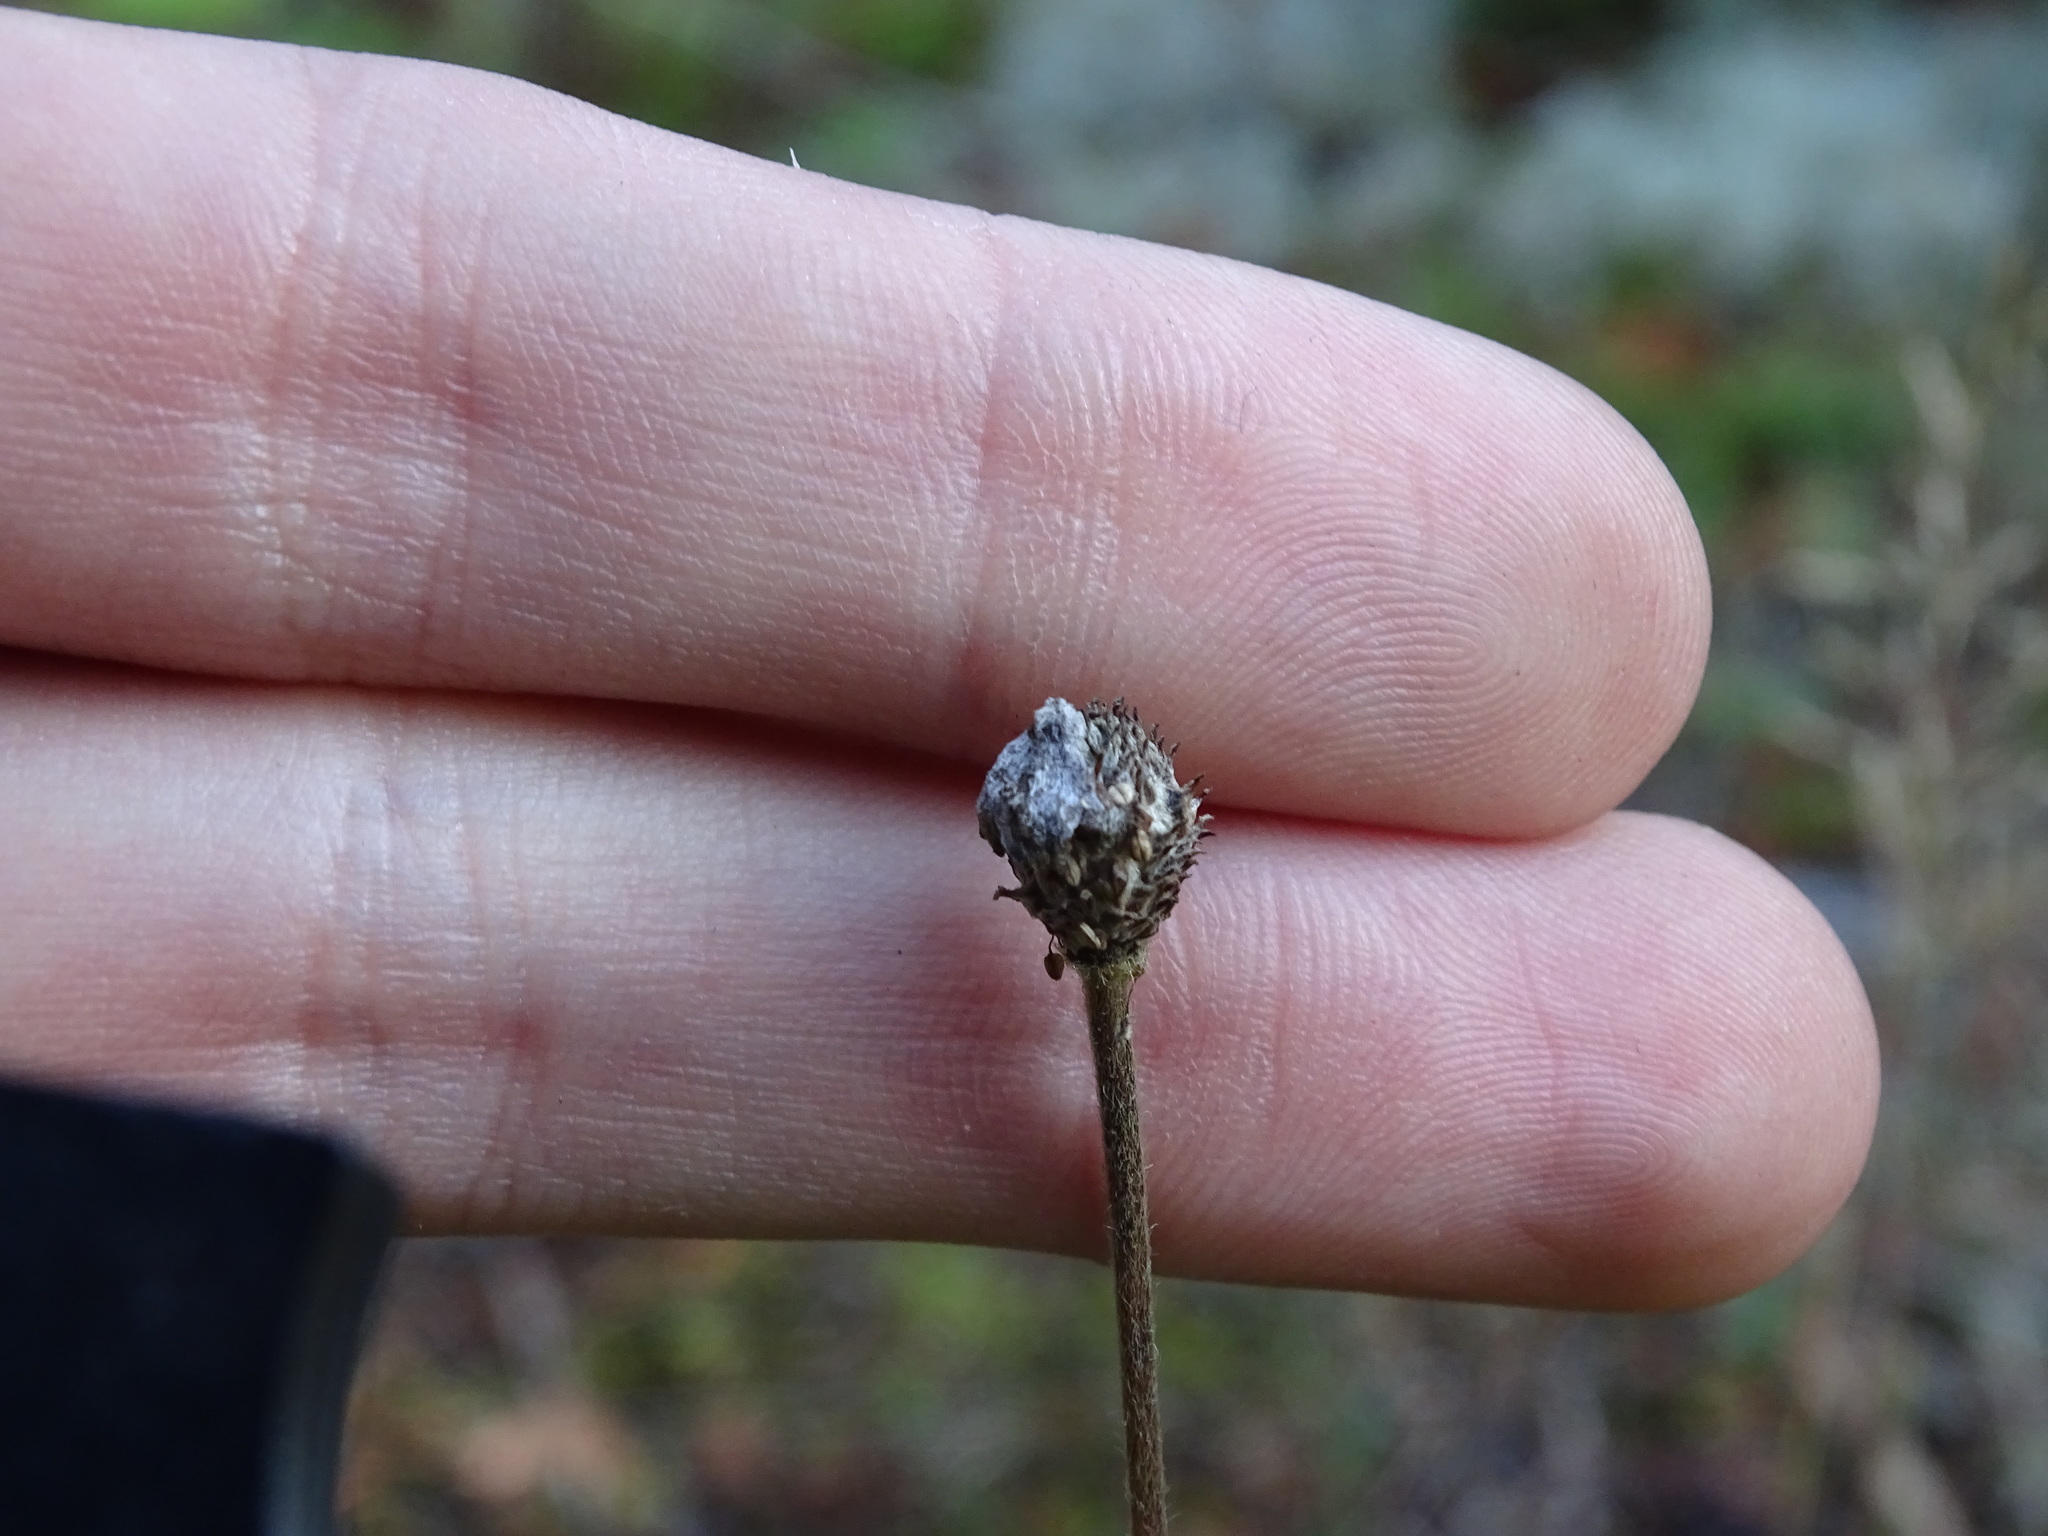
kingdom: Plantae
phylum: Tracheophyta
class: Magnoliopsida
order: Ranunculales
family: Ranunculaceae
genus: Anemone
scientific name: Anemone virginiana
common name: Tall anemone
